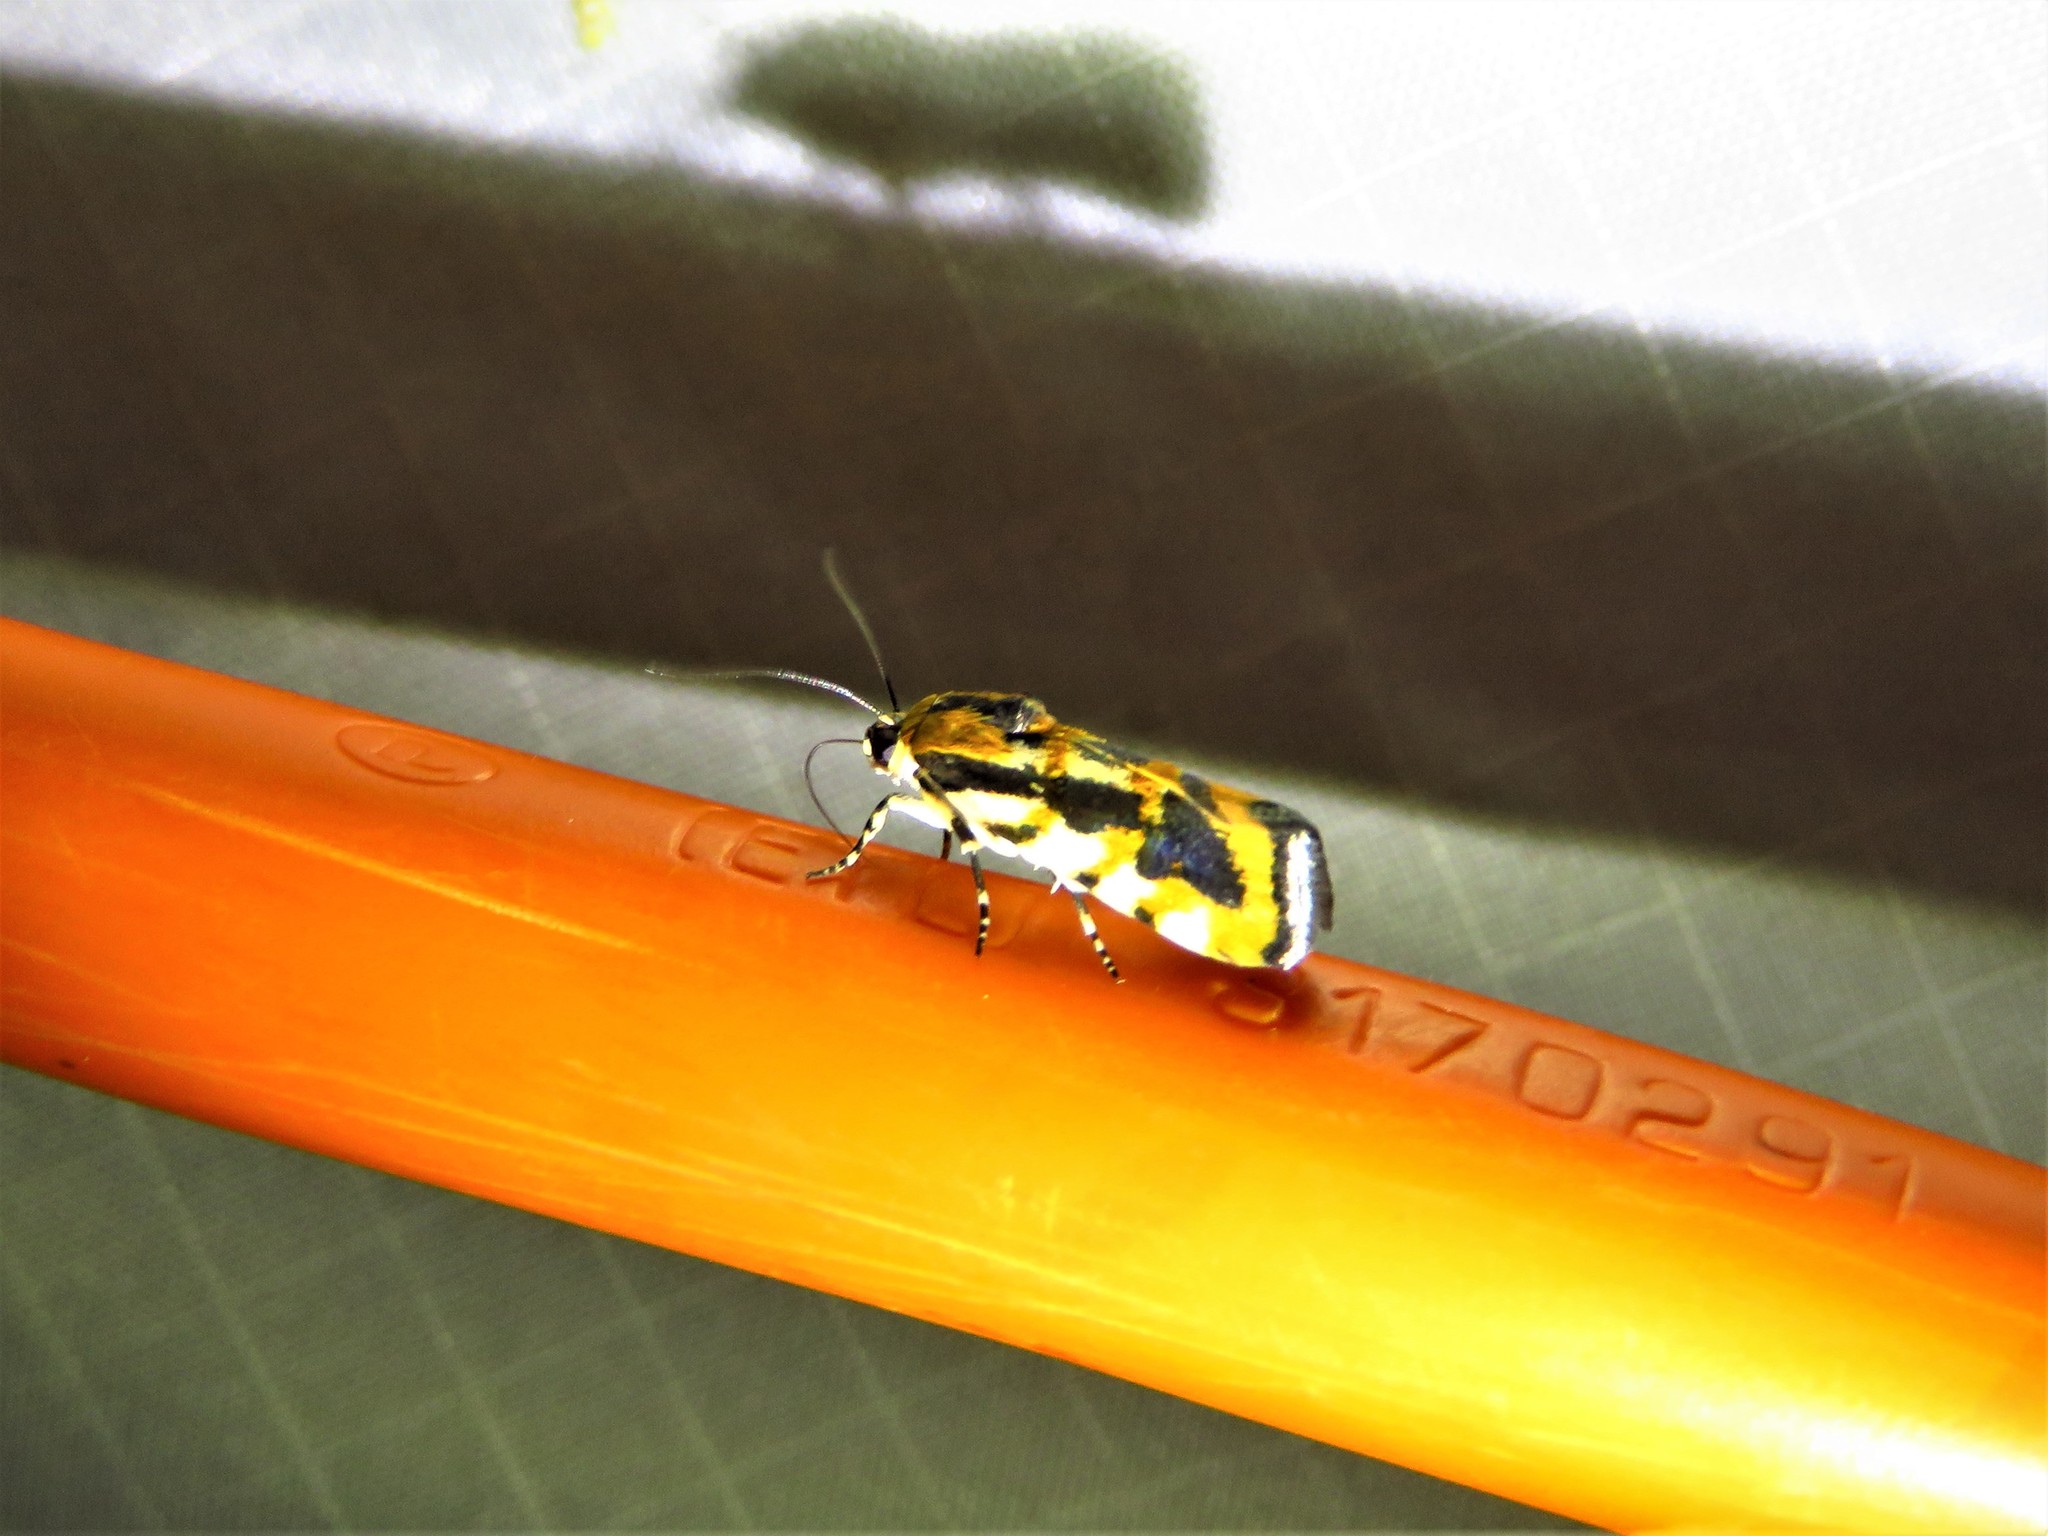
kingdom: Animalia
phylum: Arthropoda
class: Insecta
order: Lepidoptera
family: Noctuidae
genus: Acontia
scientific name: Acontia leo
